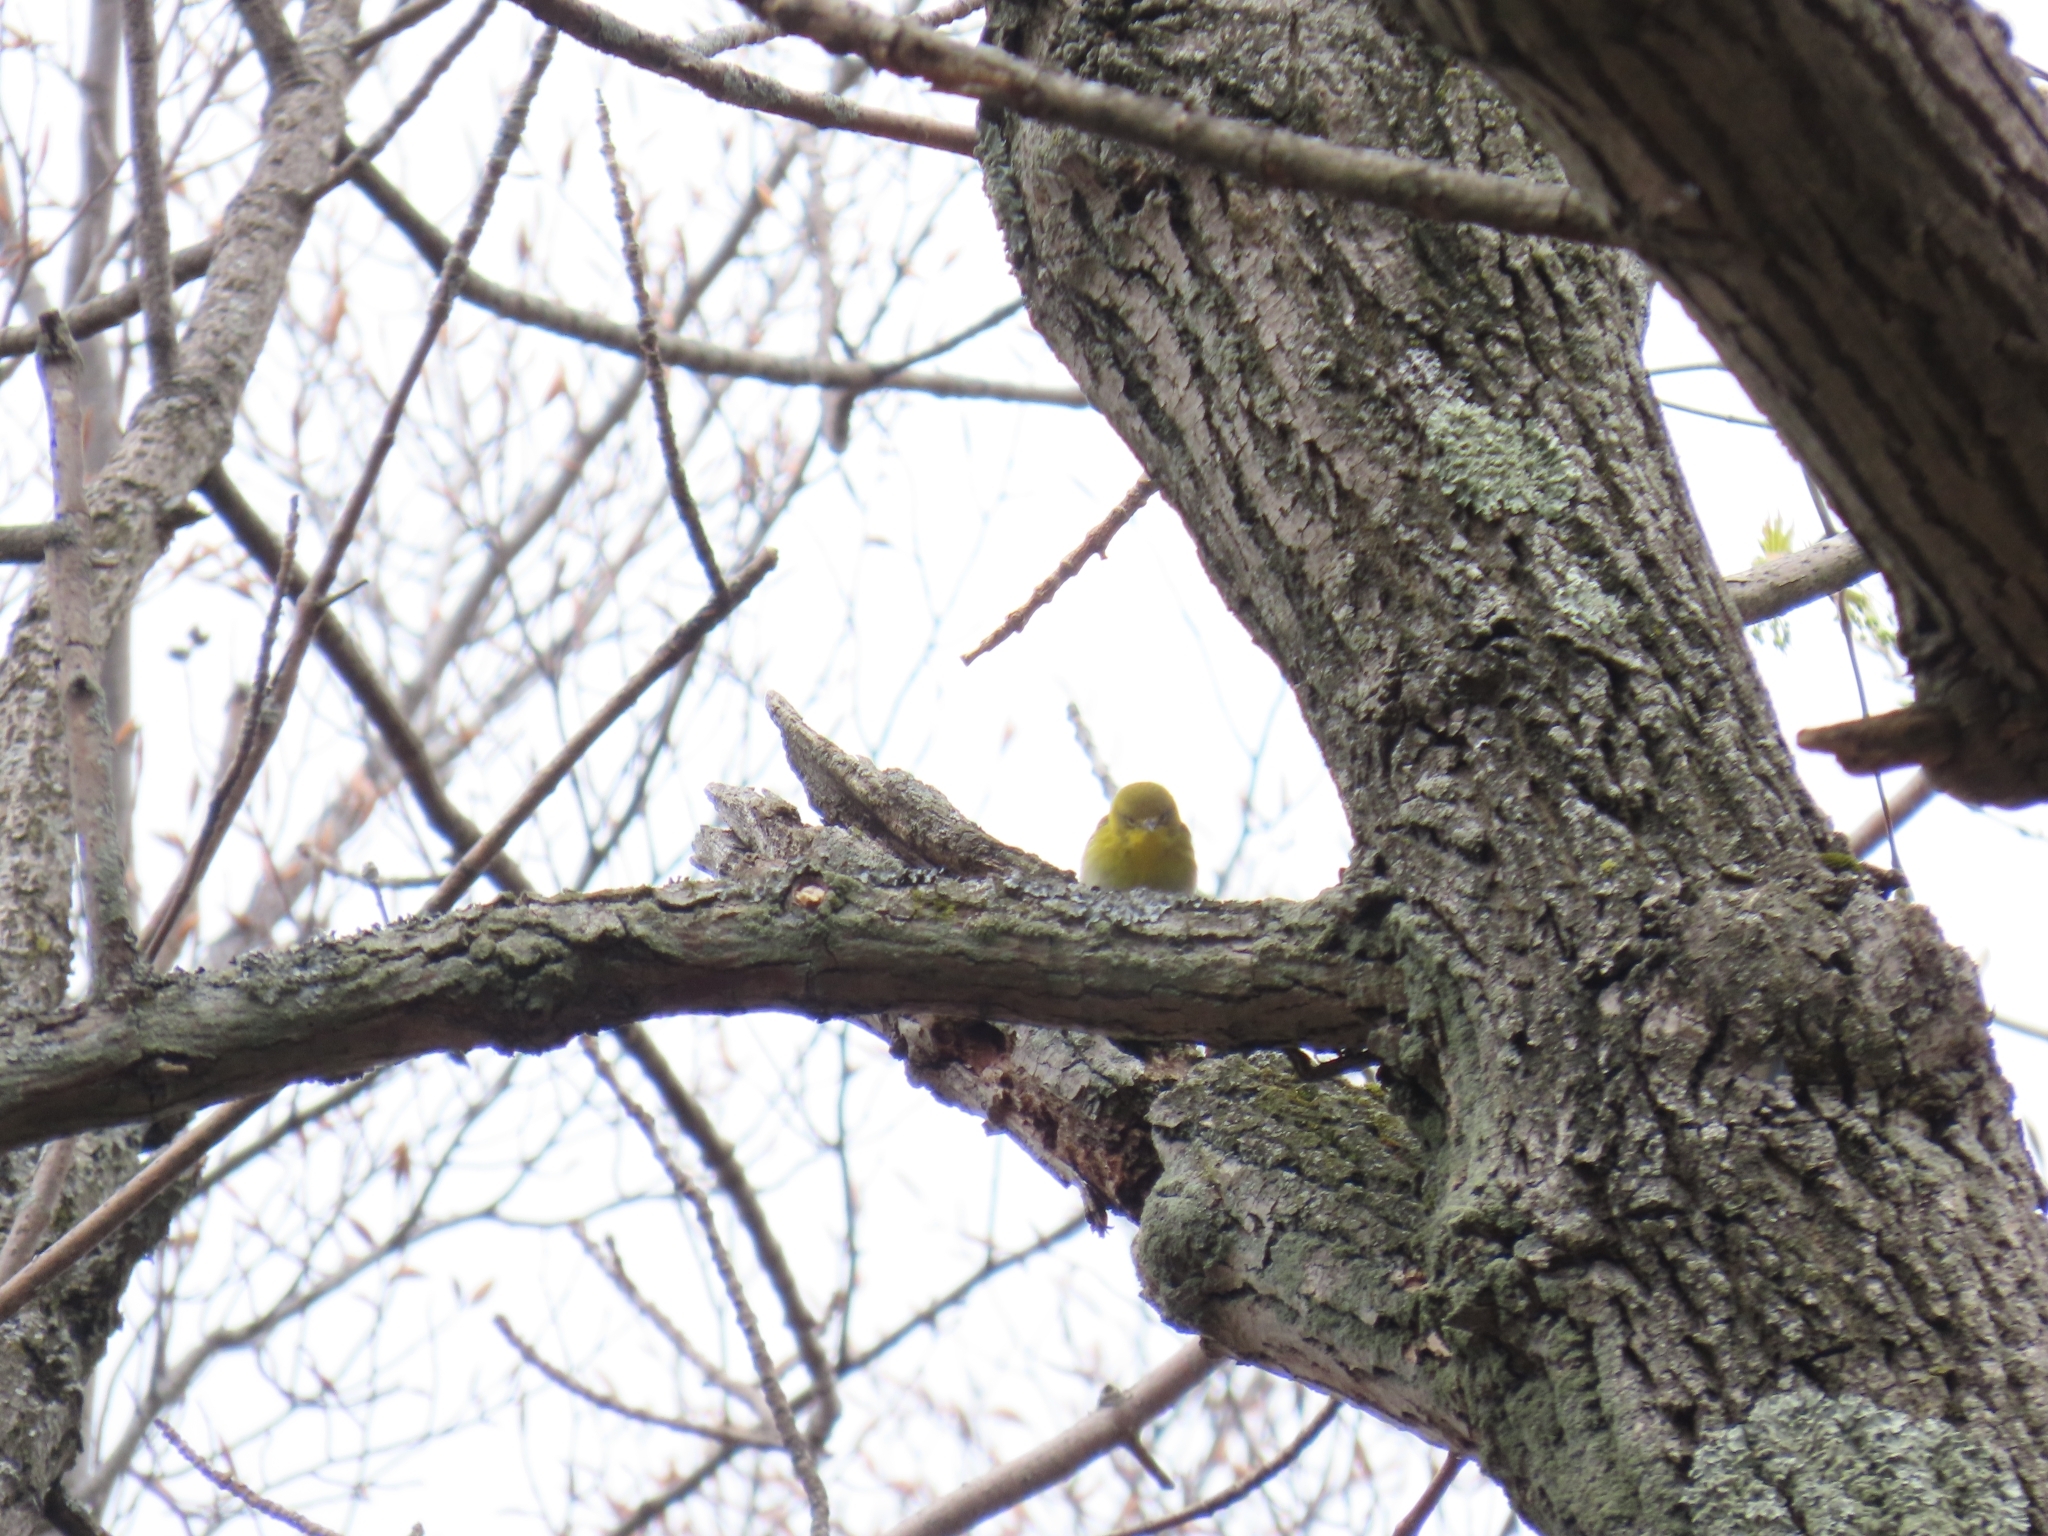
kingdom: Animalia
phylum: Chordata
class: Aves
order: Passeriformes
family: Parulidae
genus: Setophaga
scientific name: Setophaga pinus
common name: Pine warbler
